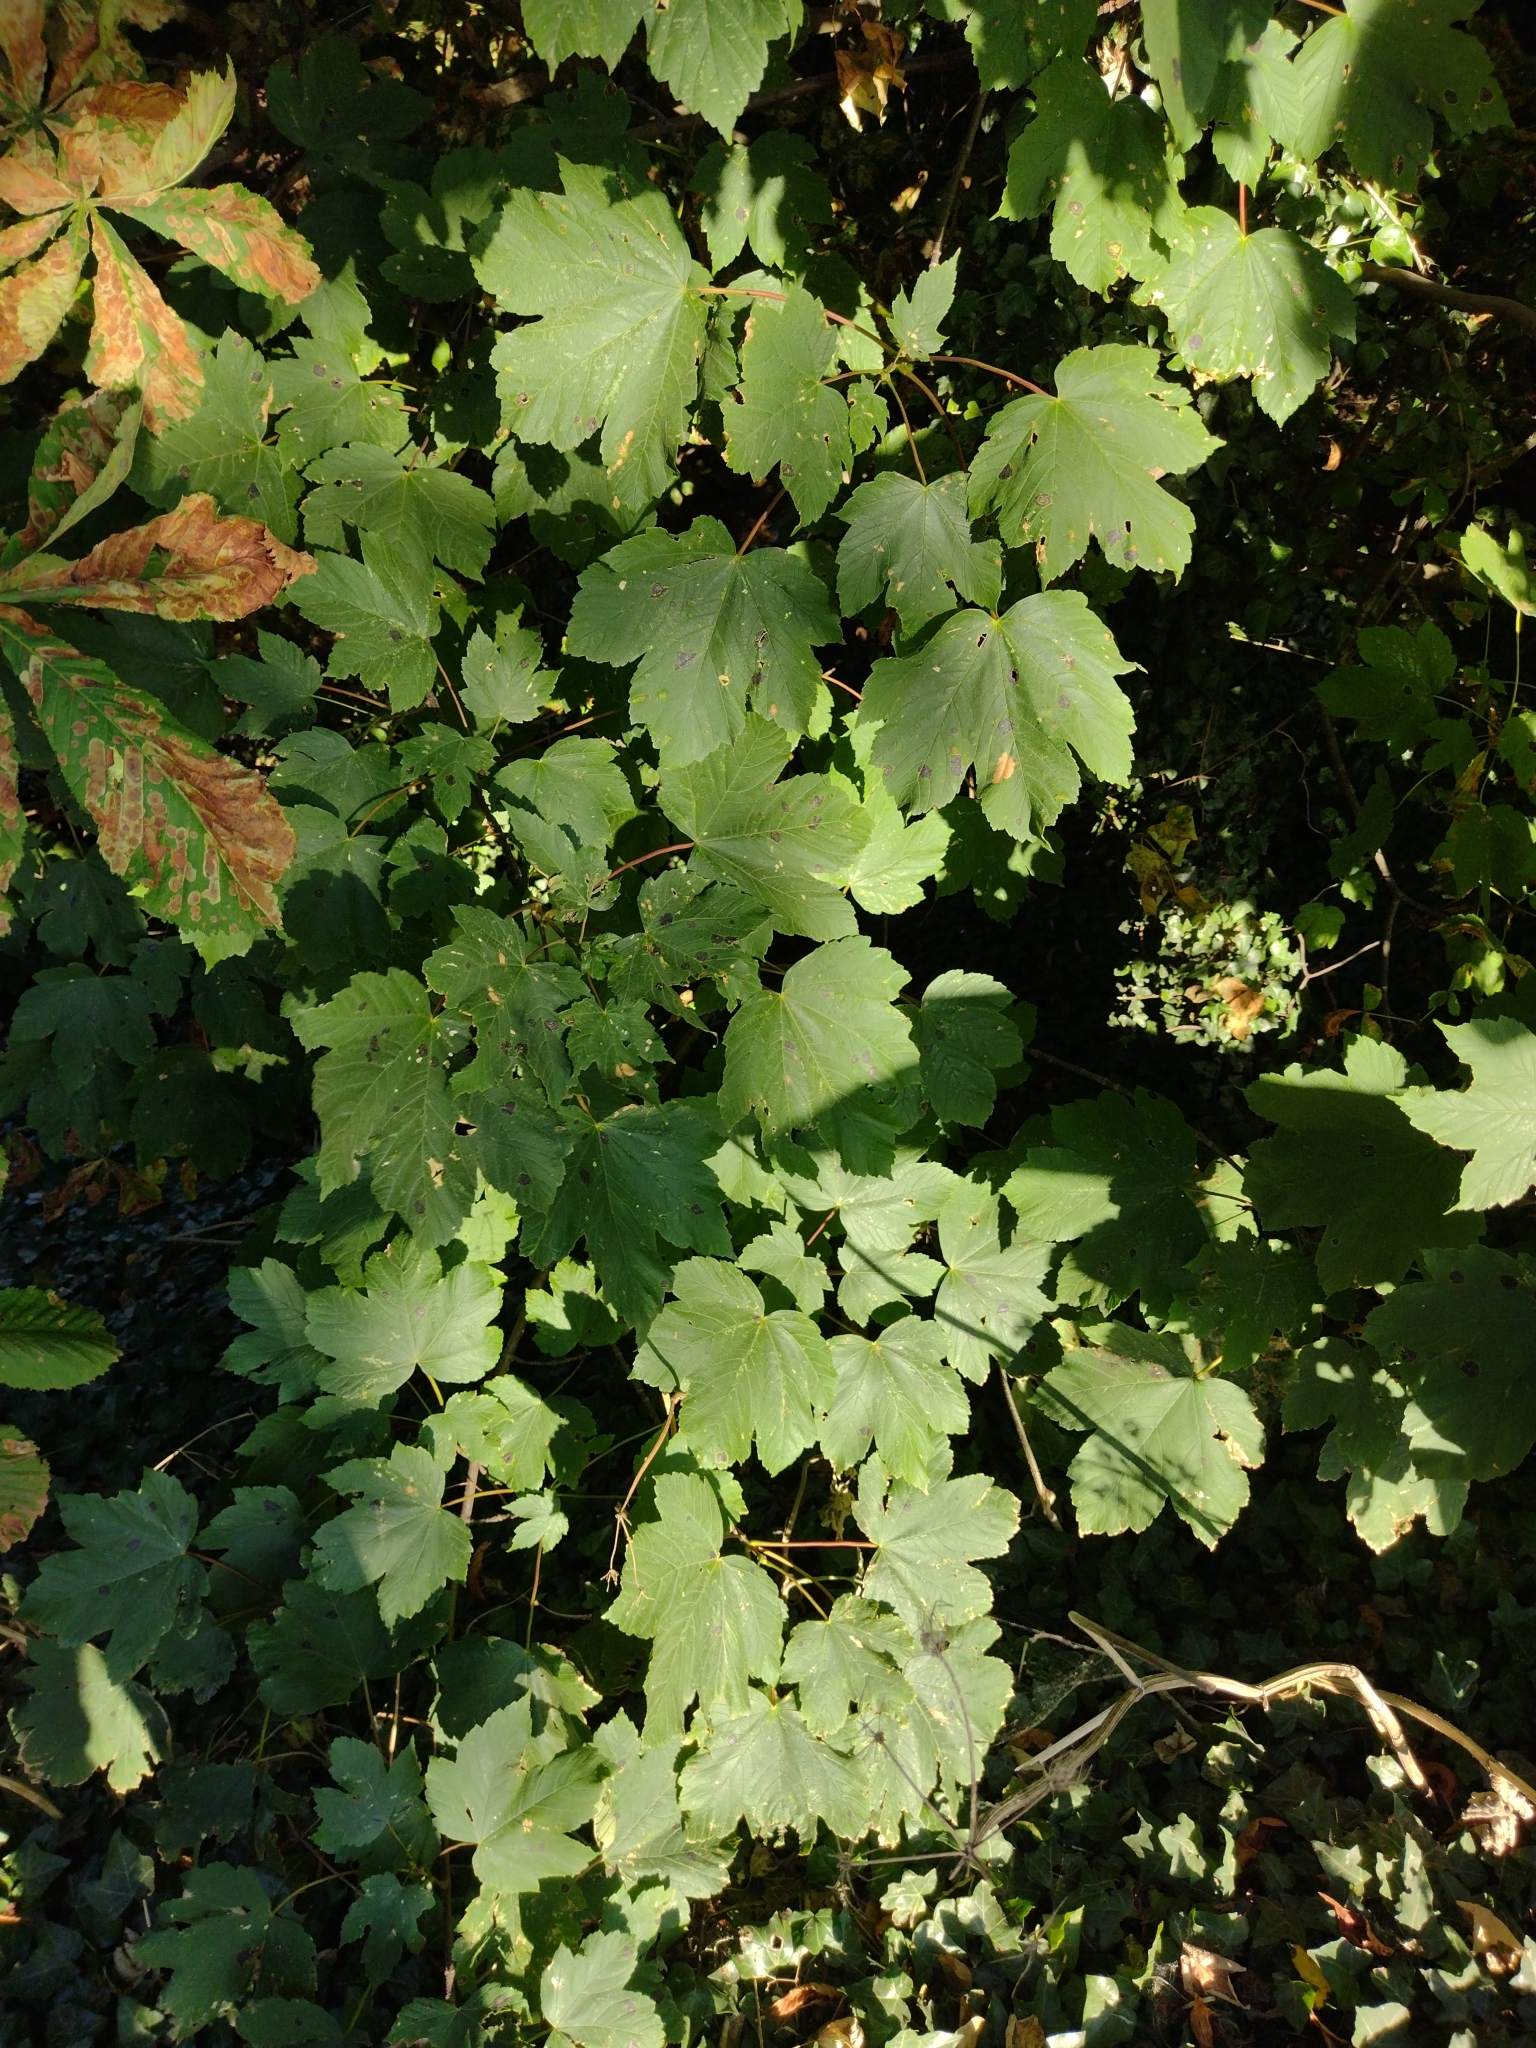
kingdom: Plantae
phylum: Tracheophyta
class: Magnoliopsida
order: Sapindales
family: Sapindaceae
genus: Acer
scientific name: Acer pseudoplatanus
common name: Sycamore
